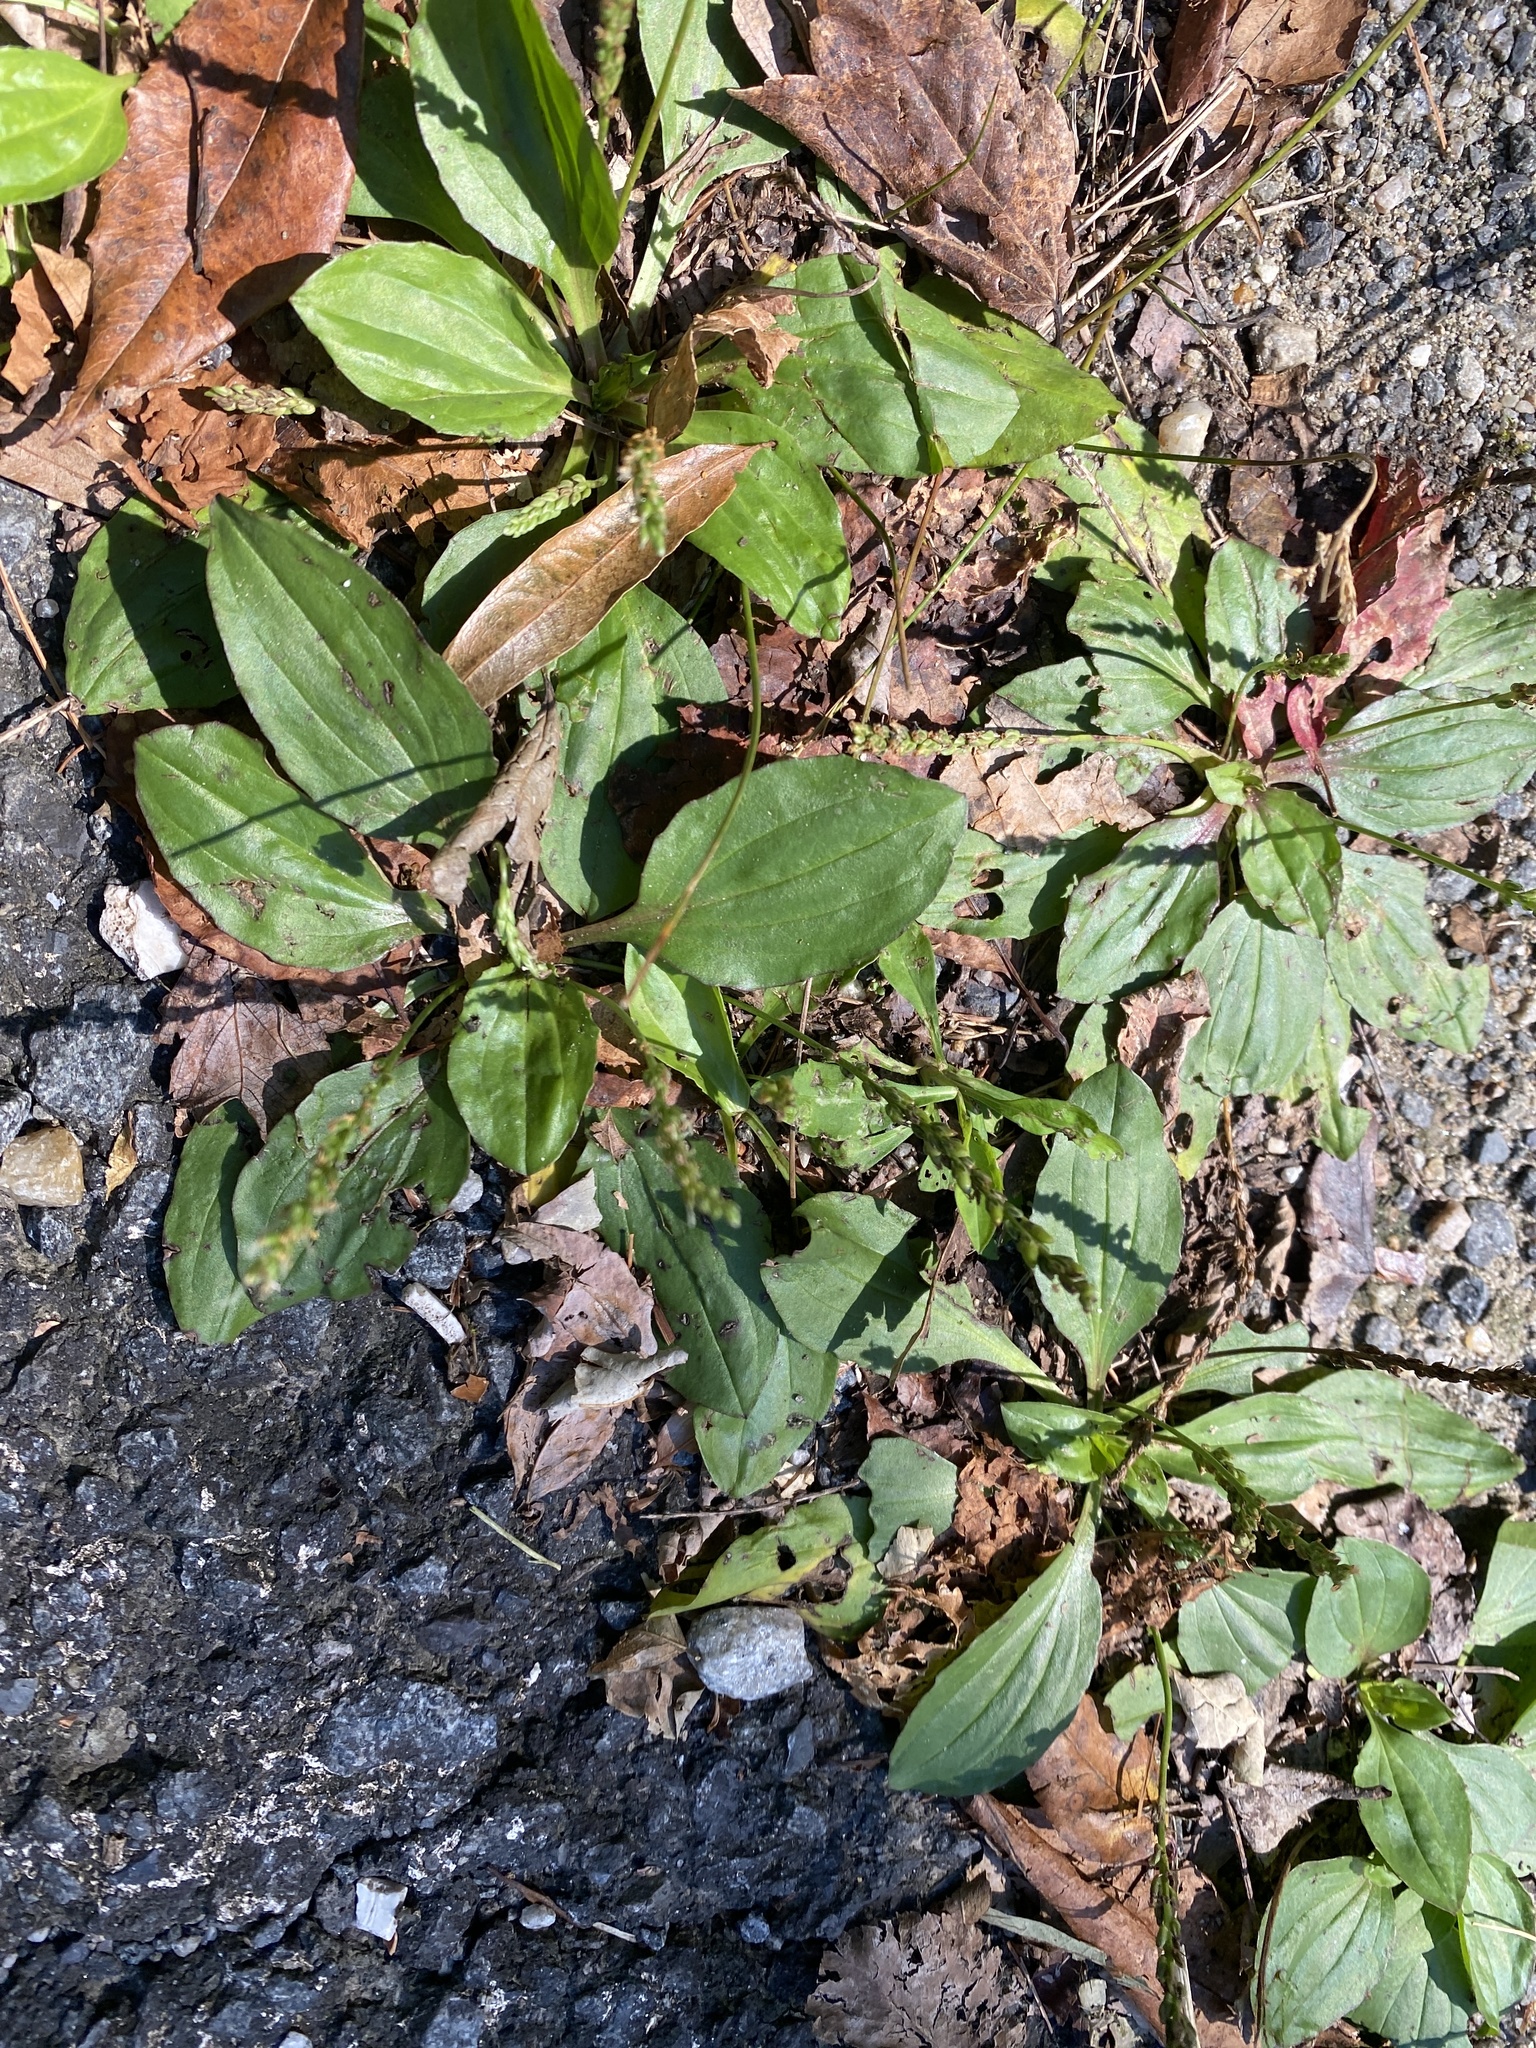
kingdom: Plantae
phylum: Tracheophyta
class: Magnoliopsida
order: Lamiales
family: Plantaginaceae
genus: Plantago
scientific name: Plantago rugelii
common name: American plantain
